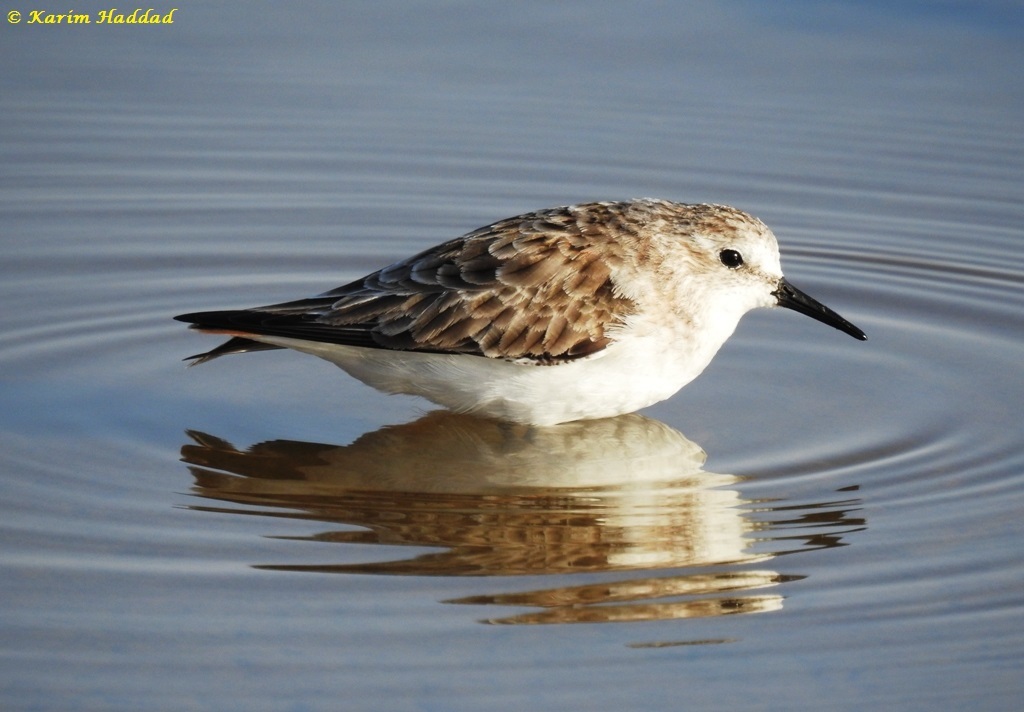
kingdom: Animalia
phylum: Chordata
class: Aves
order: Charadriiformes
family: Scolopacidae
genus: Calidris
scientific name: Calidris minuta
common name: Little stint
